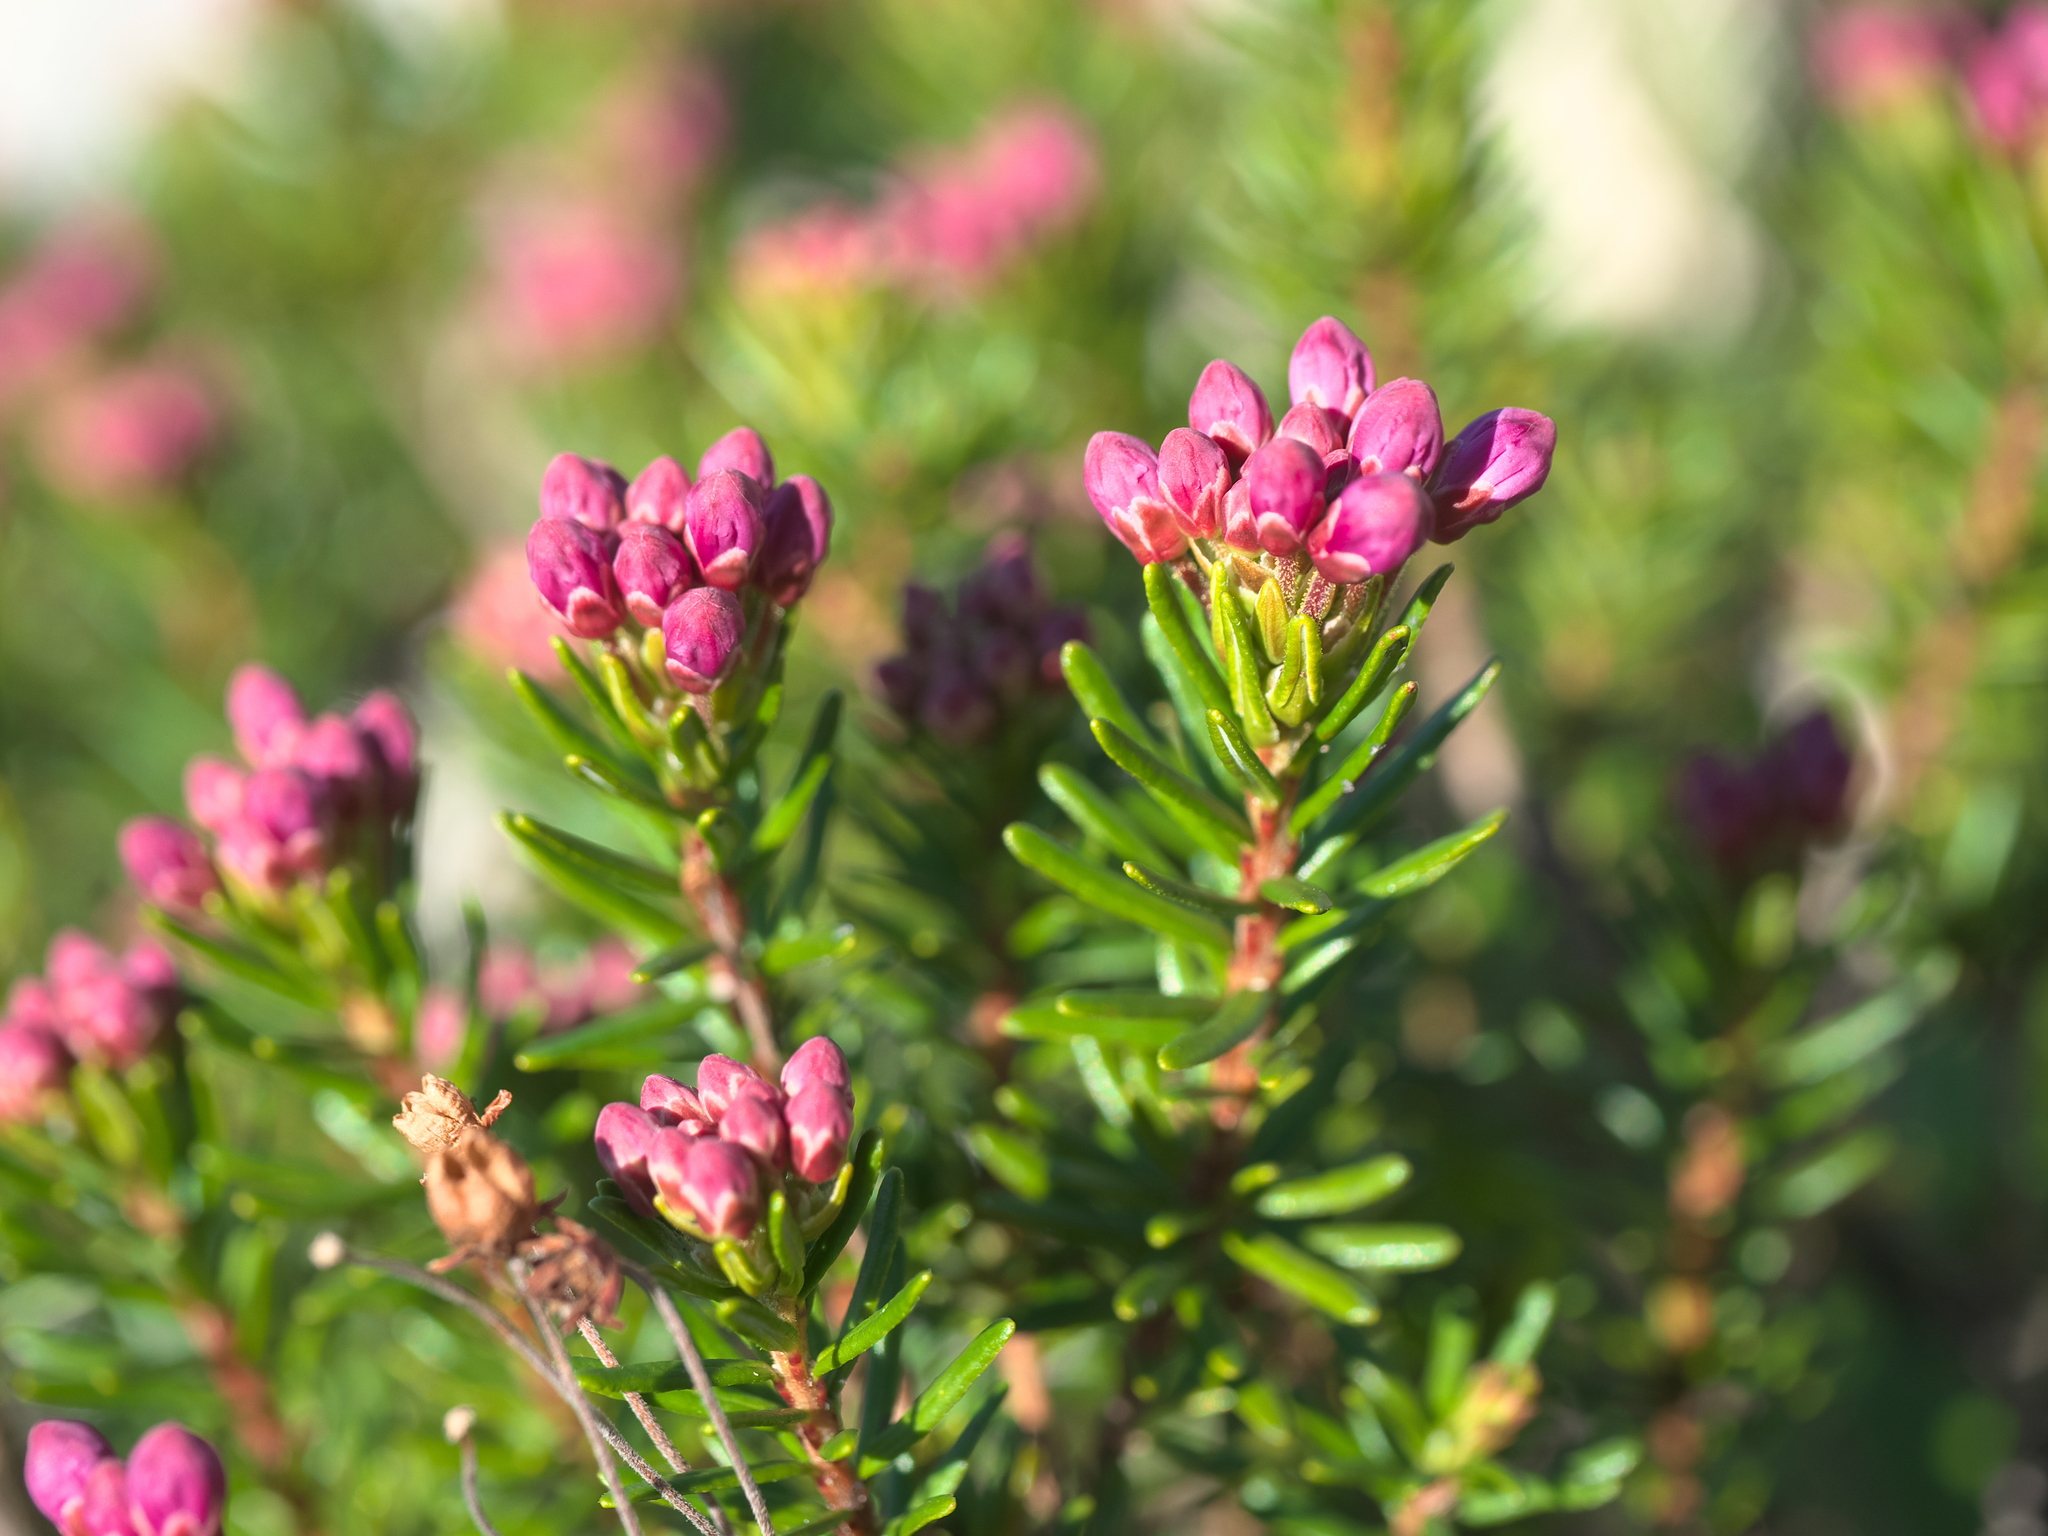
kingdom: Plantae
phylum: Tracheophyta
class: Magnoliopsida
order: Ericales
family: Ericaceae
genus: Phyllodoce
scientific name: Phyllodoce empetriformis
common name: Pink mountain heather
